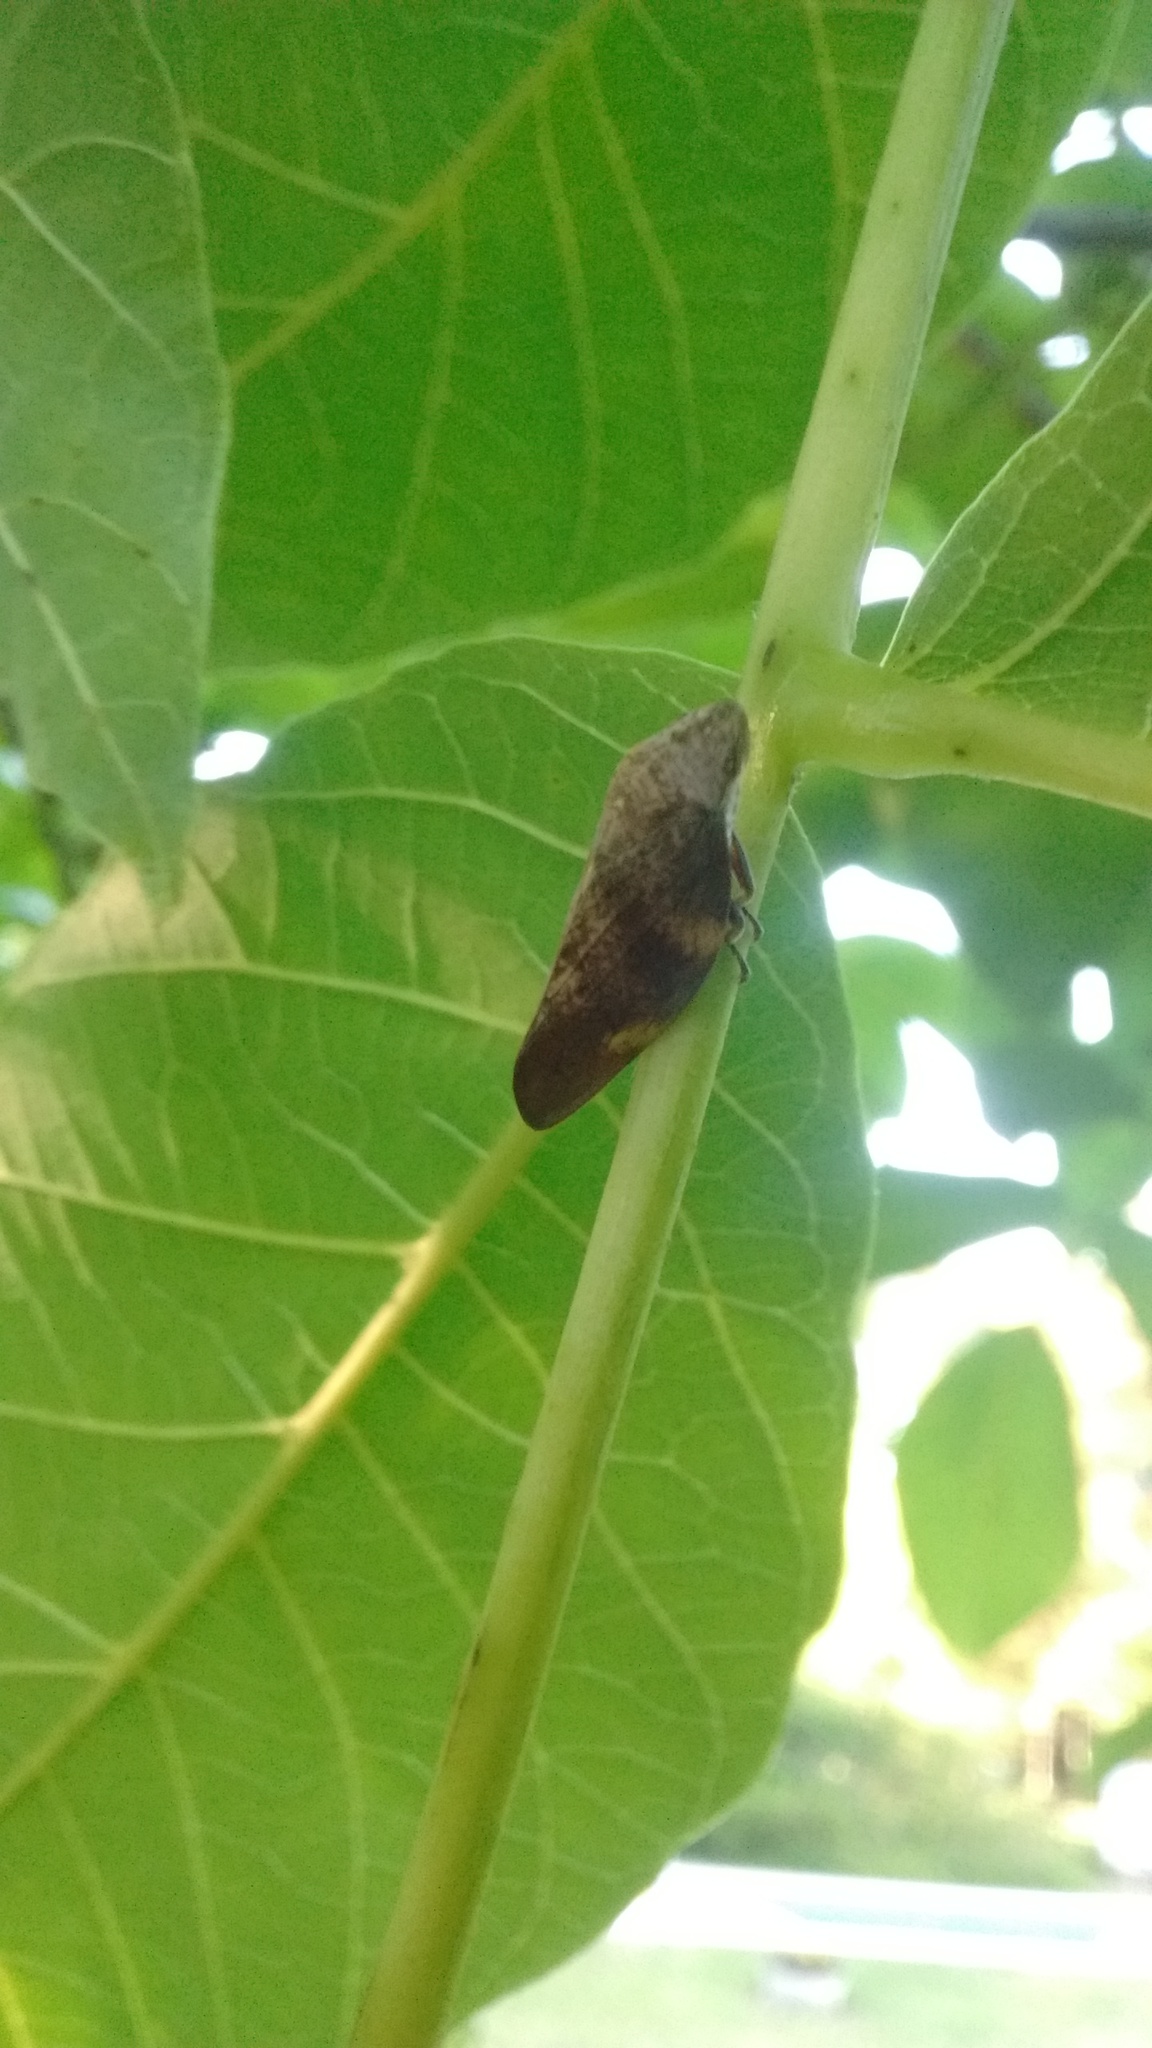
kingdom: Animalia
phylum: Arthropoda
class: Insecta
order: Hemiptera
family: Aphrophoridae
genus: Cephisus
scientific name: Cephisus siccifolius
